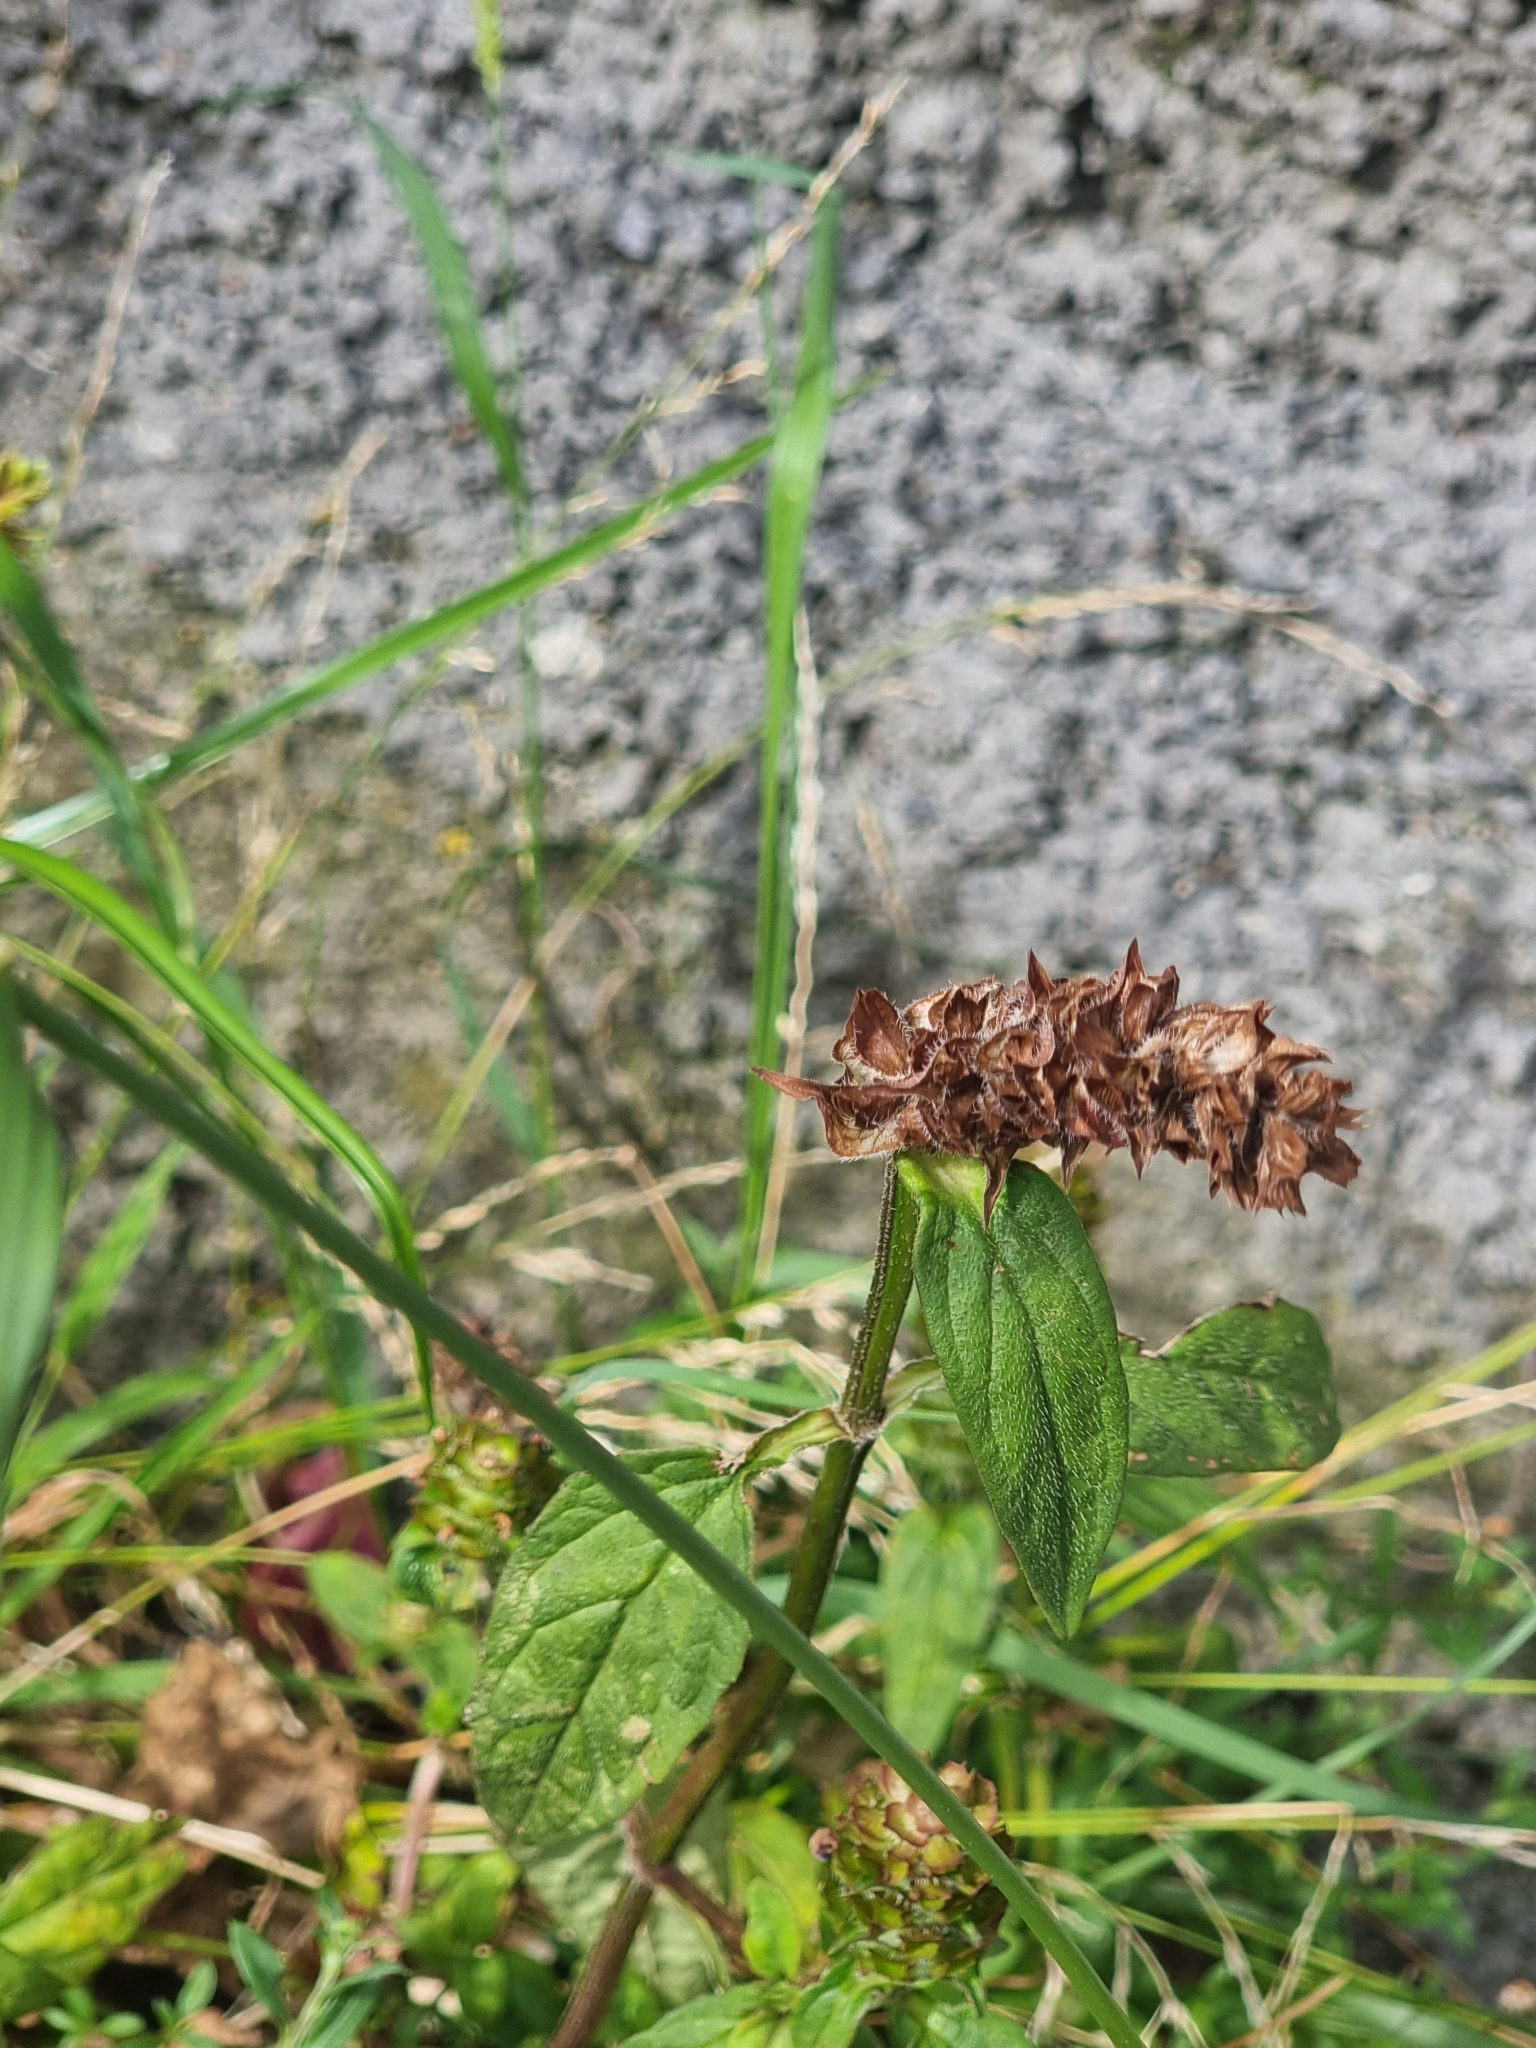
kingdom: Plantae
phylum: Tracheophyta
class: Magnoliopsida
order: Lamiales
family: Lamiaceae
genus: Prunella
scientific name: Prunella vulgaris
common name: Heal-all
